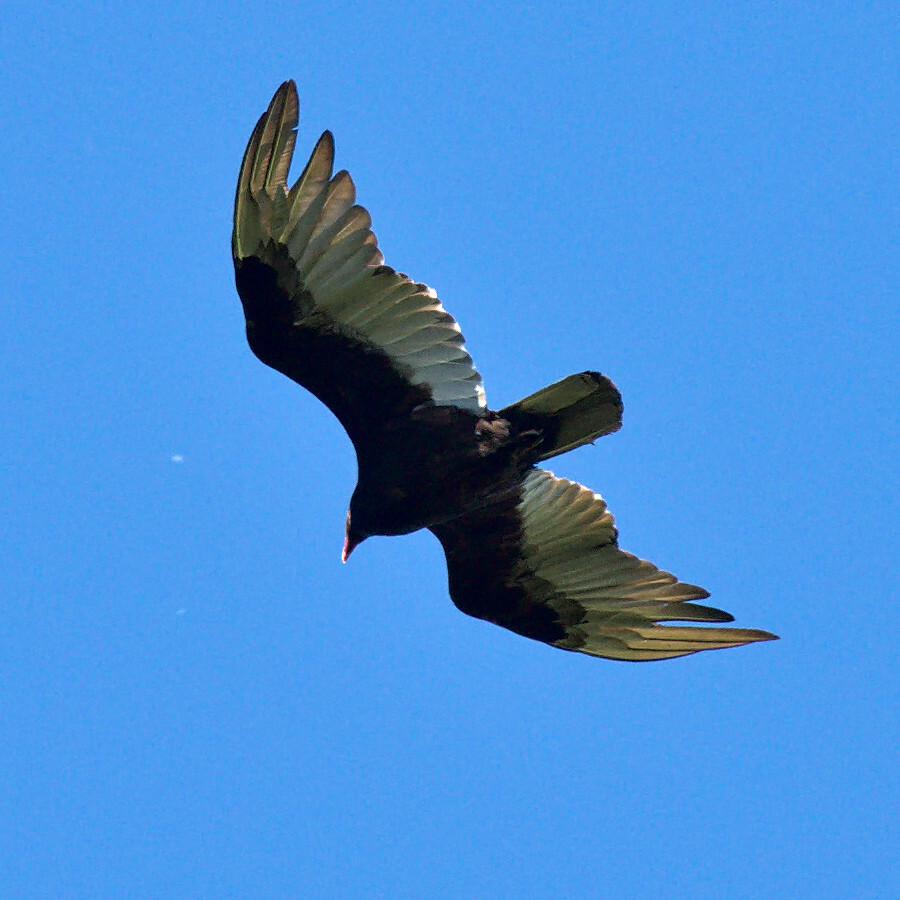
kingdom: Animalia
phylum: Chordata
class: Aves
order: Accipitriformes
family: Cathartidae
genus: Cathartes
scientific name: Cathartes aura
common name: Turkey vulture
